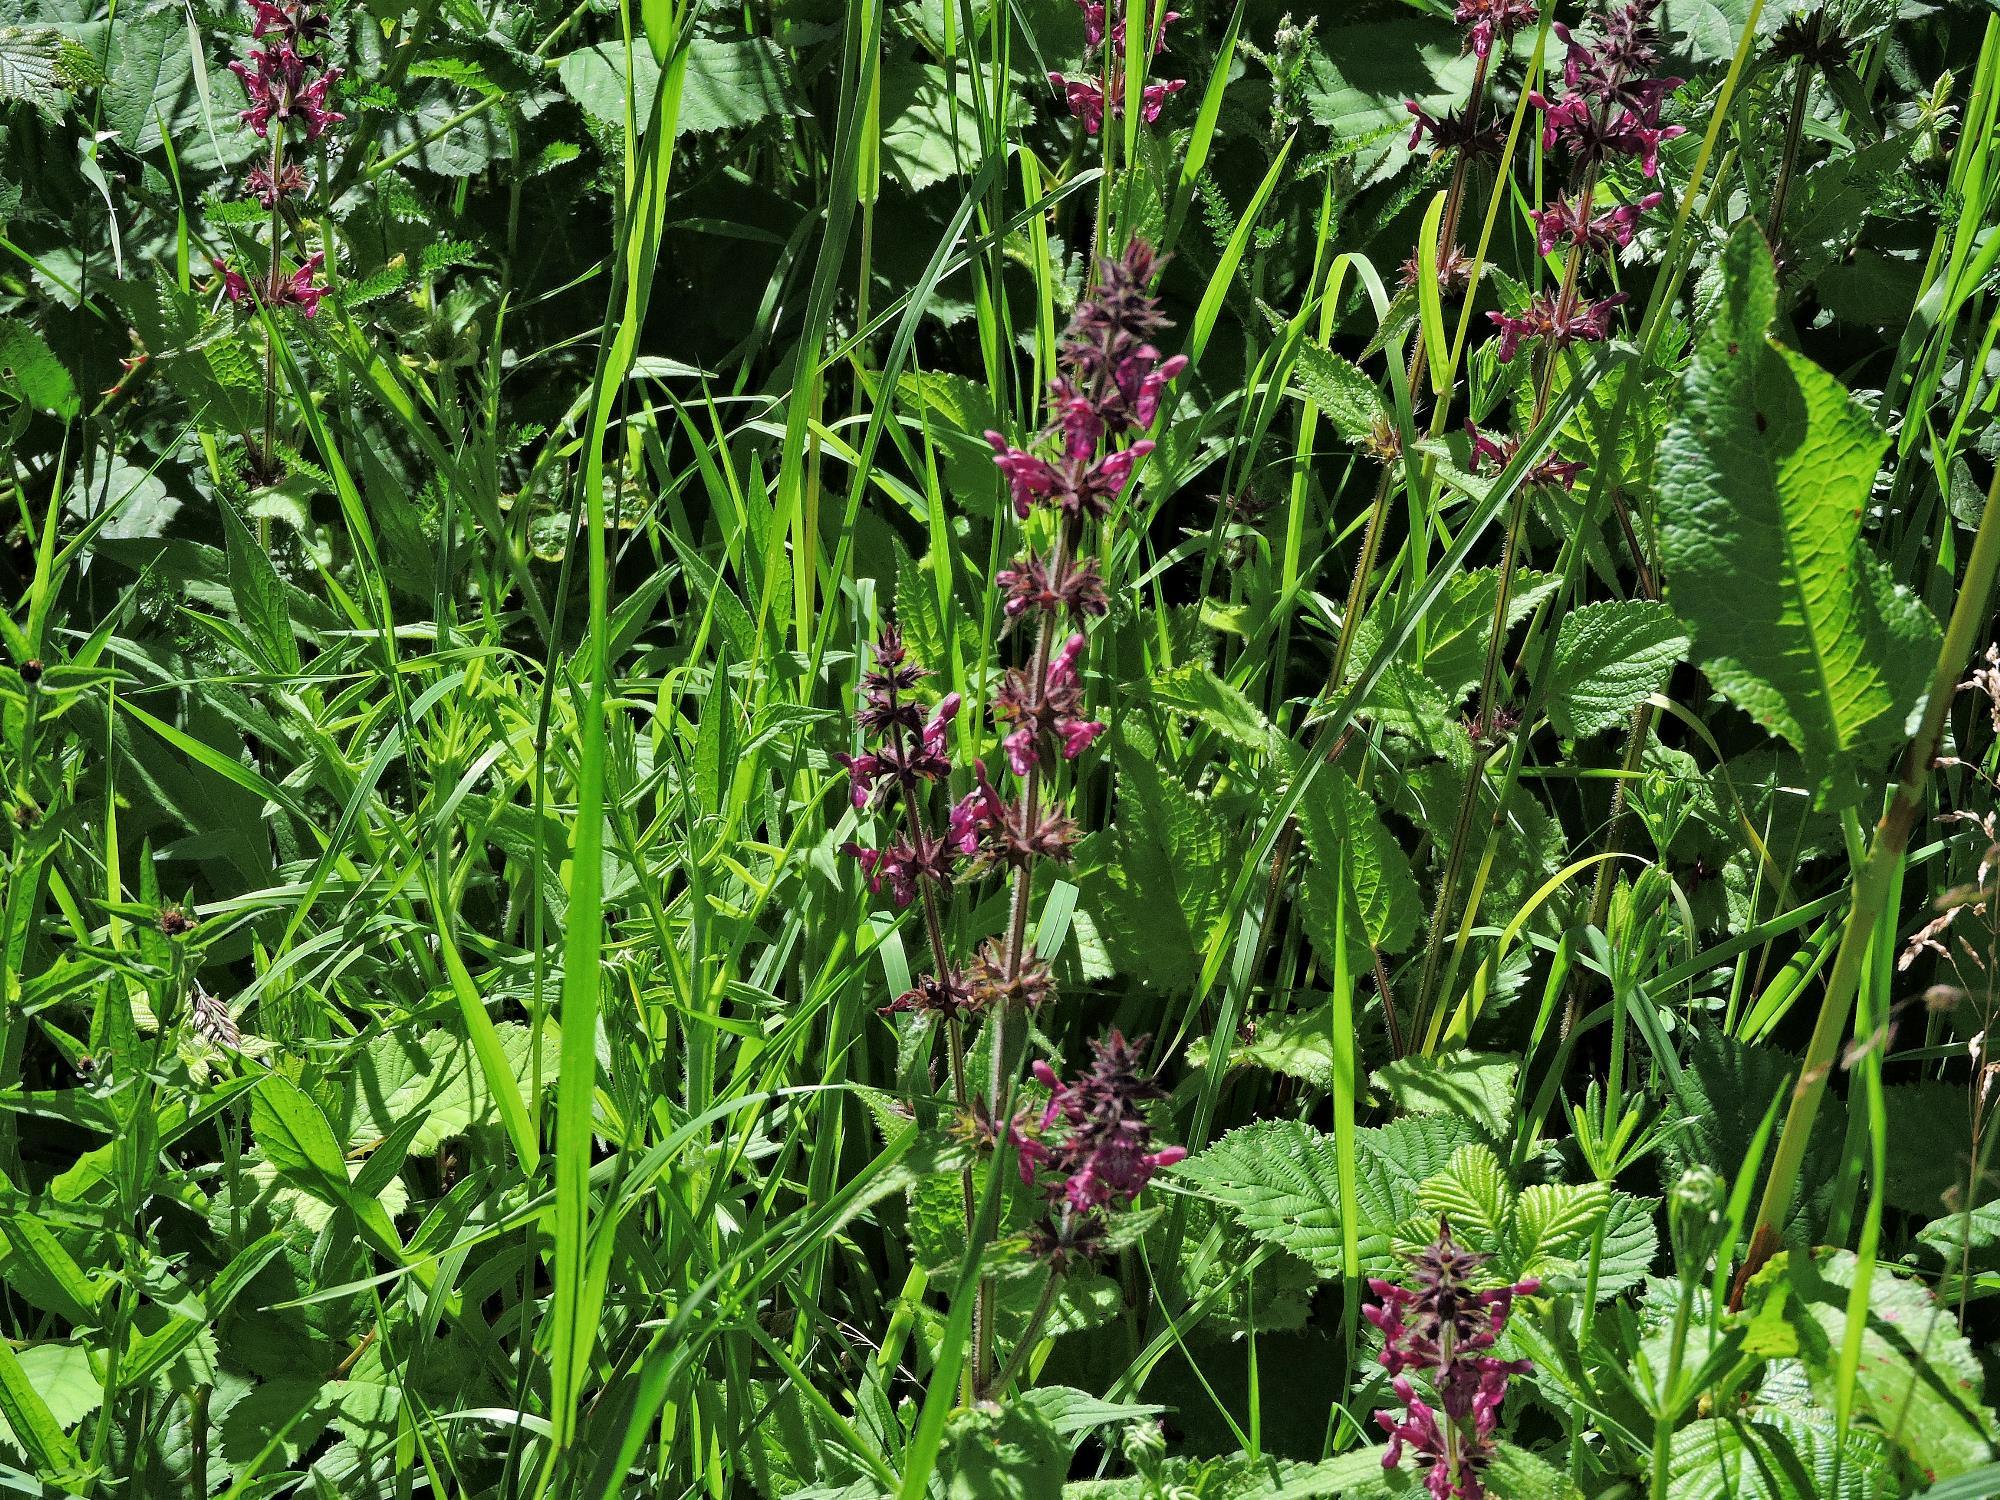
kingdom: Plantae
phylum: Tracheophyta
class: Magnoliopsida
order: Lamiales
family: Lamiaceae
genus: Stachys
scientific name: Stachys sylvatica
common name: Hedge woundwort
